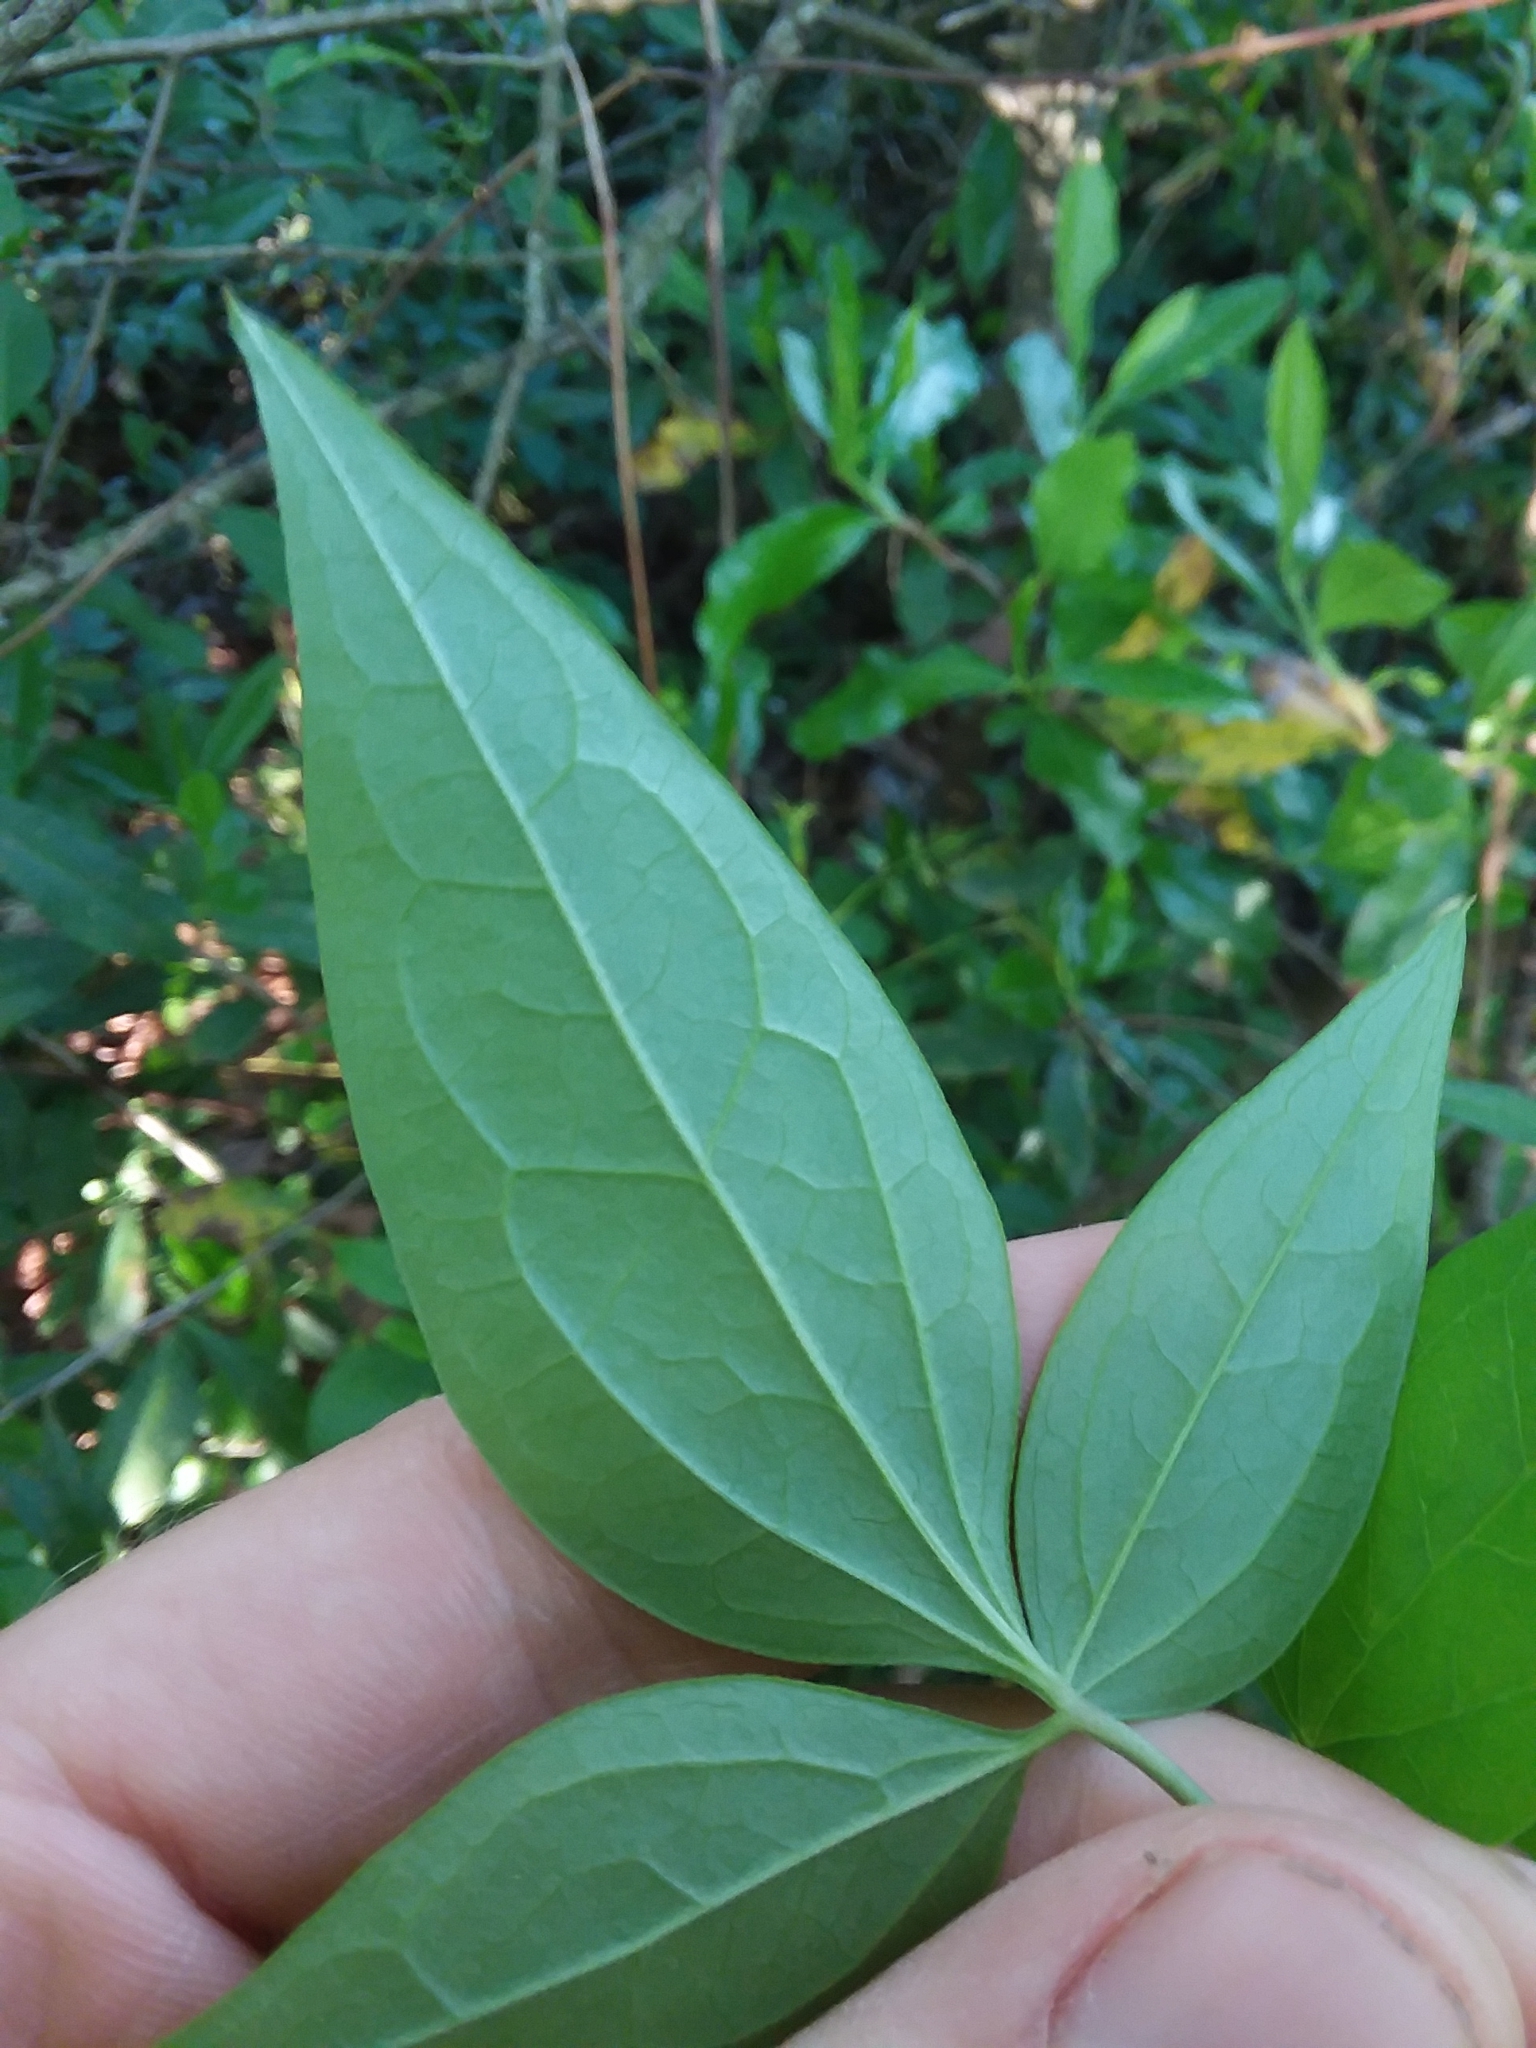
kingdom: Plantae
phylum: Tracheophyta
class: Magnoliopsida
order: Ranunculales
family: Ranunculaceae
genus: Clematis
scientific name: Clematis crispa
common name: Curly clematis
